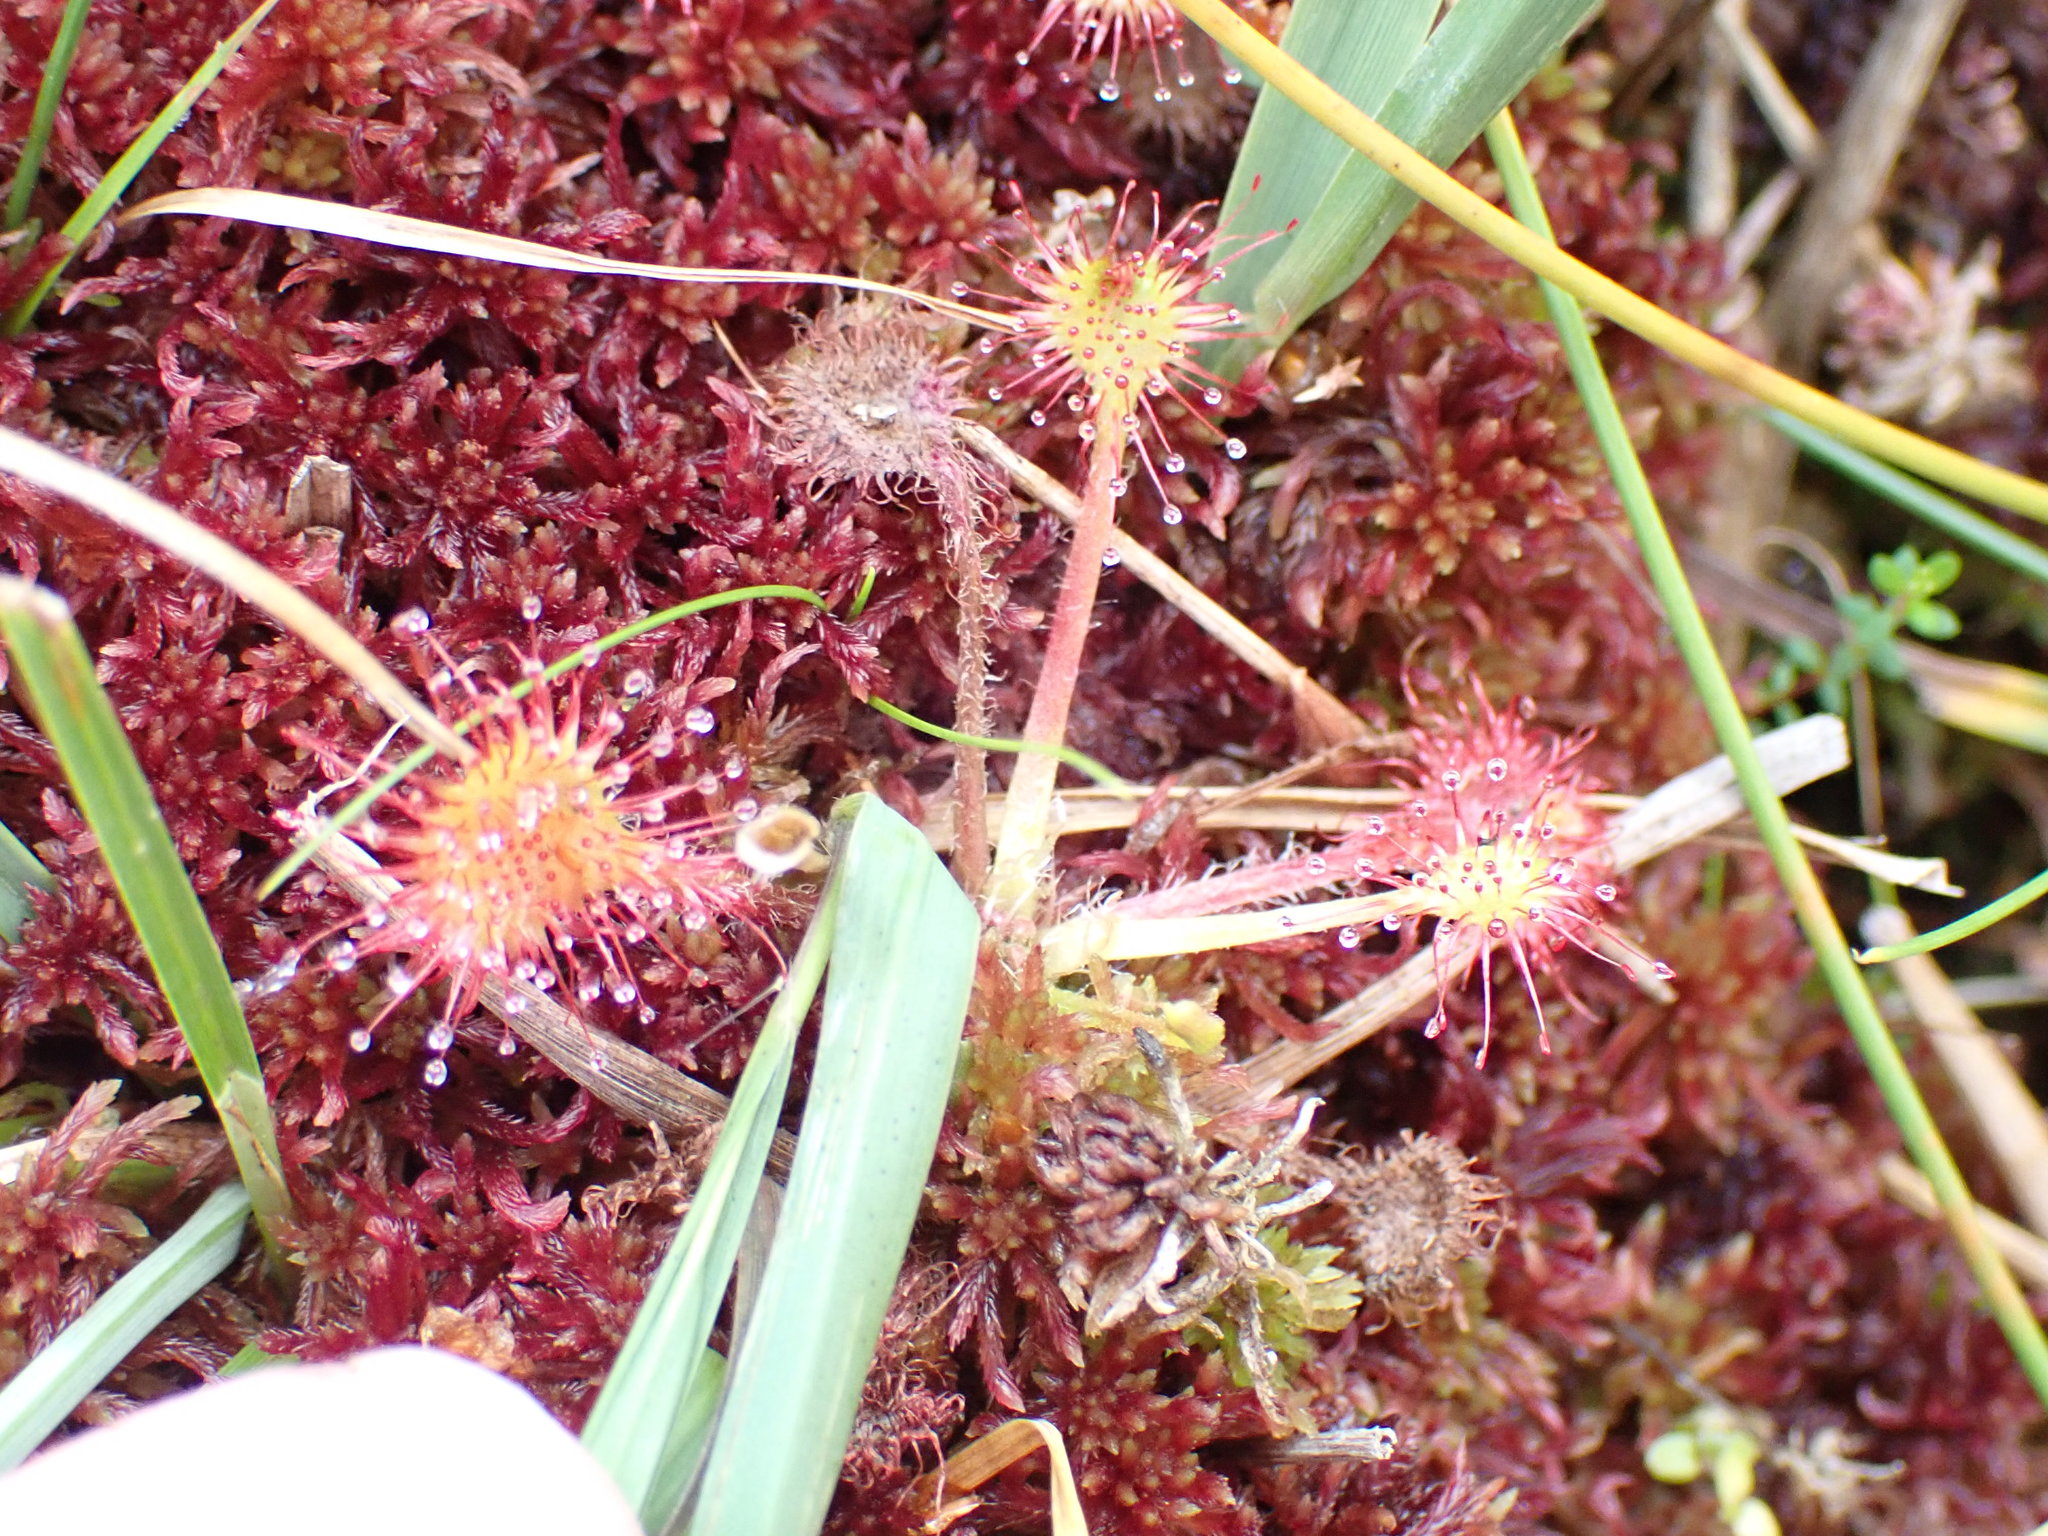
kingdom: Plantae
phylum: Tracheophyta
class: Magnoliopsida
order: Caryophyllales
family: Droseraceae
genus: Drosera
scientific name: Drosera rotundifolia
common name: Round-leaved sundew
